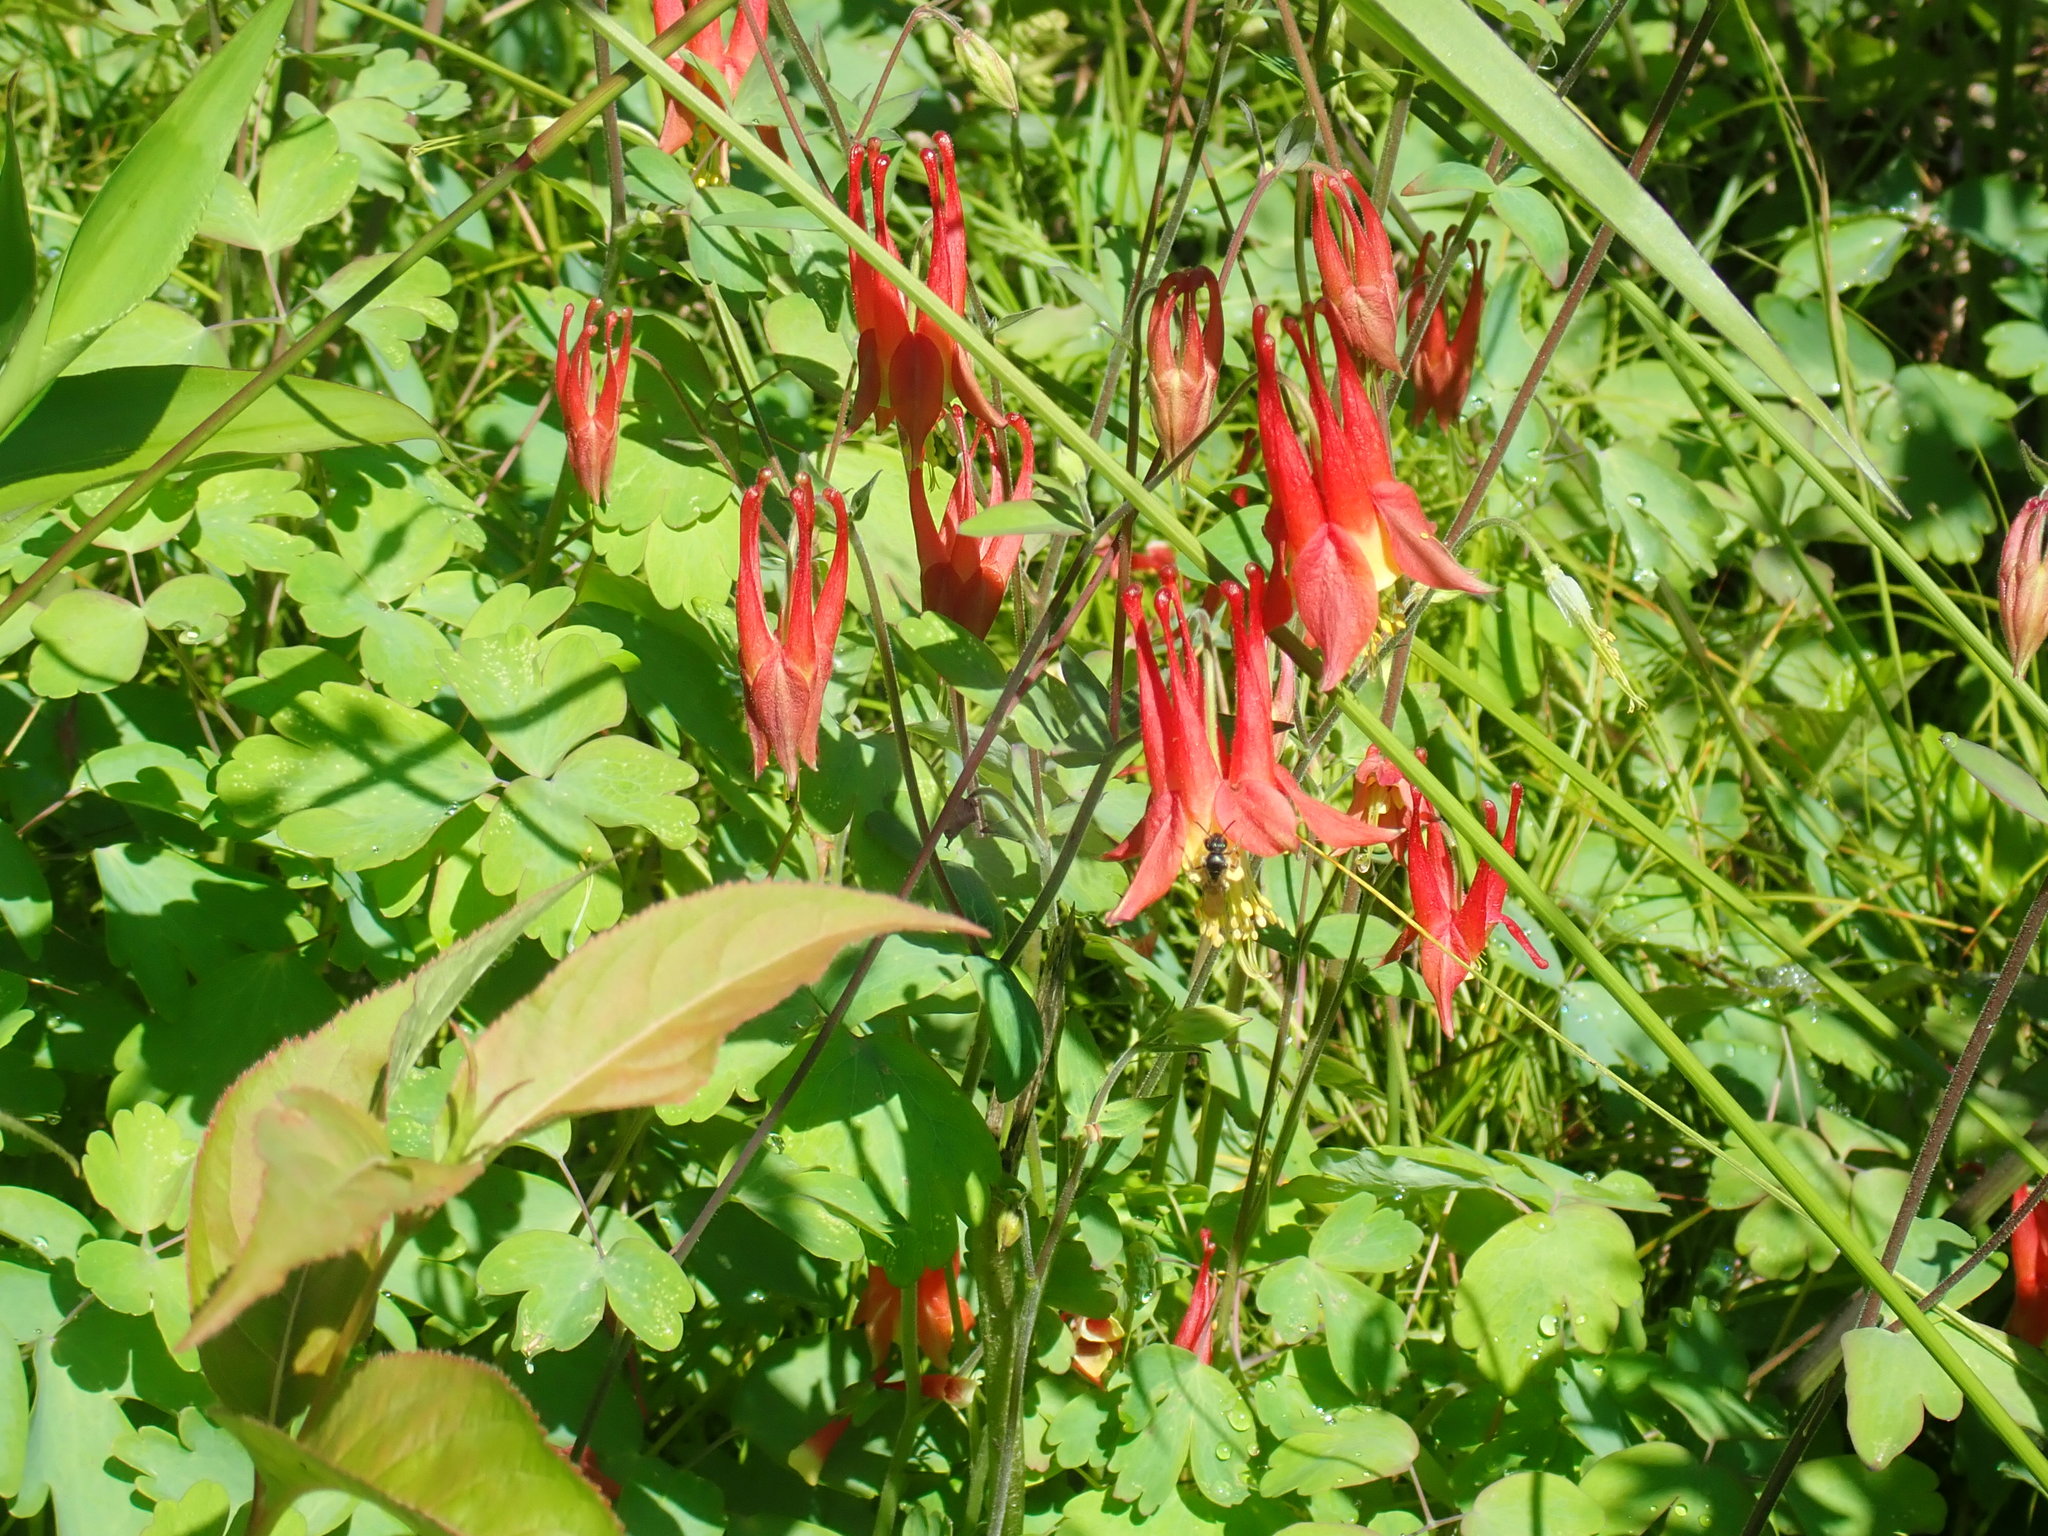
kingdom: Plantae
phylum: Tracheophyta
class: Magnoliopsida
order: Ranunculales
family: Ranunculaceae
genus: Aquilegia
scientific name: Aquilegia canadensis
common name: American columbine
